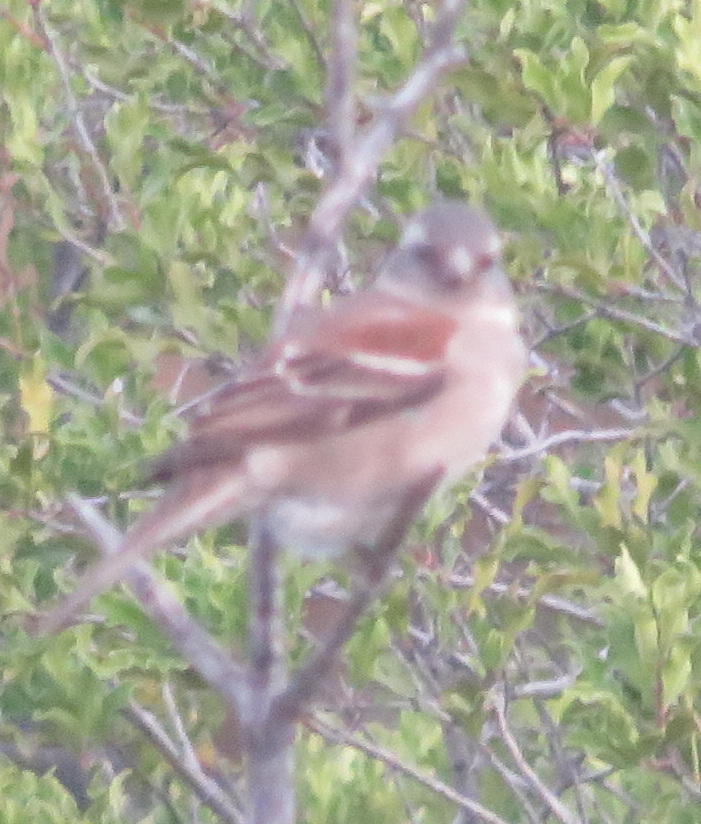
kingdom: Animalia
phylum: Chordata
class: Aves
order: Passeriformes
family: Passeridae
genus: Passer
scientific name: Passer melanurus
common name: Cape sparrow
